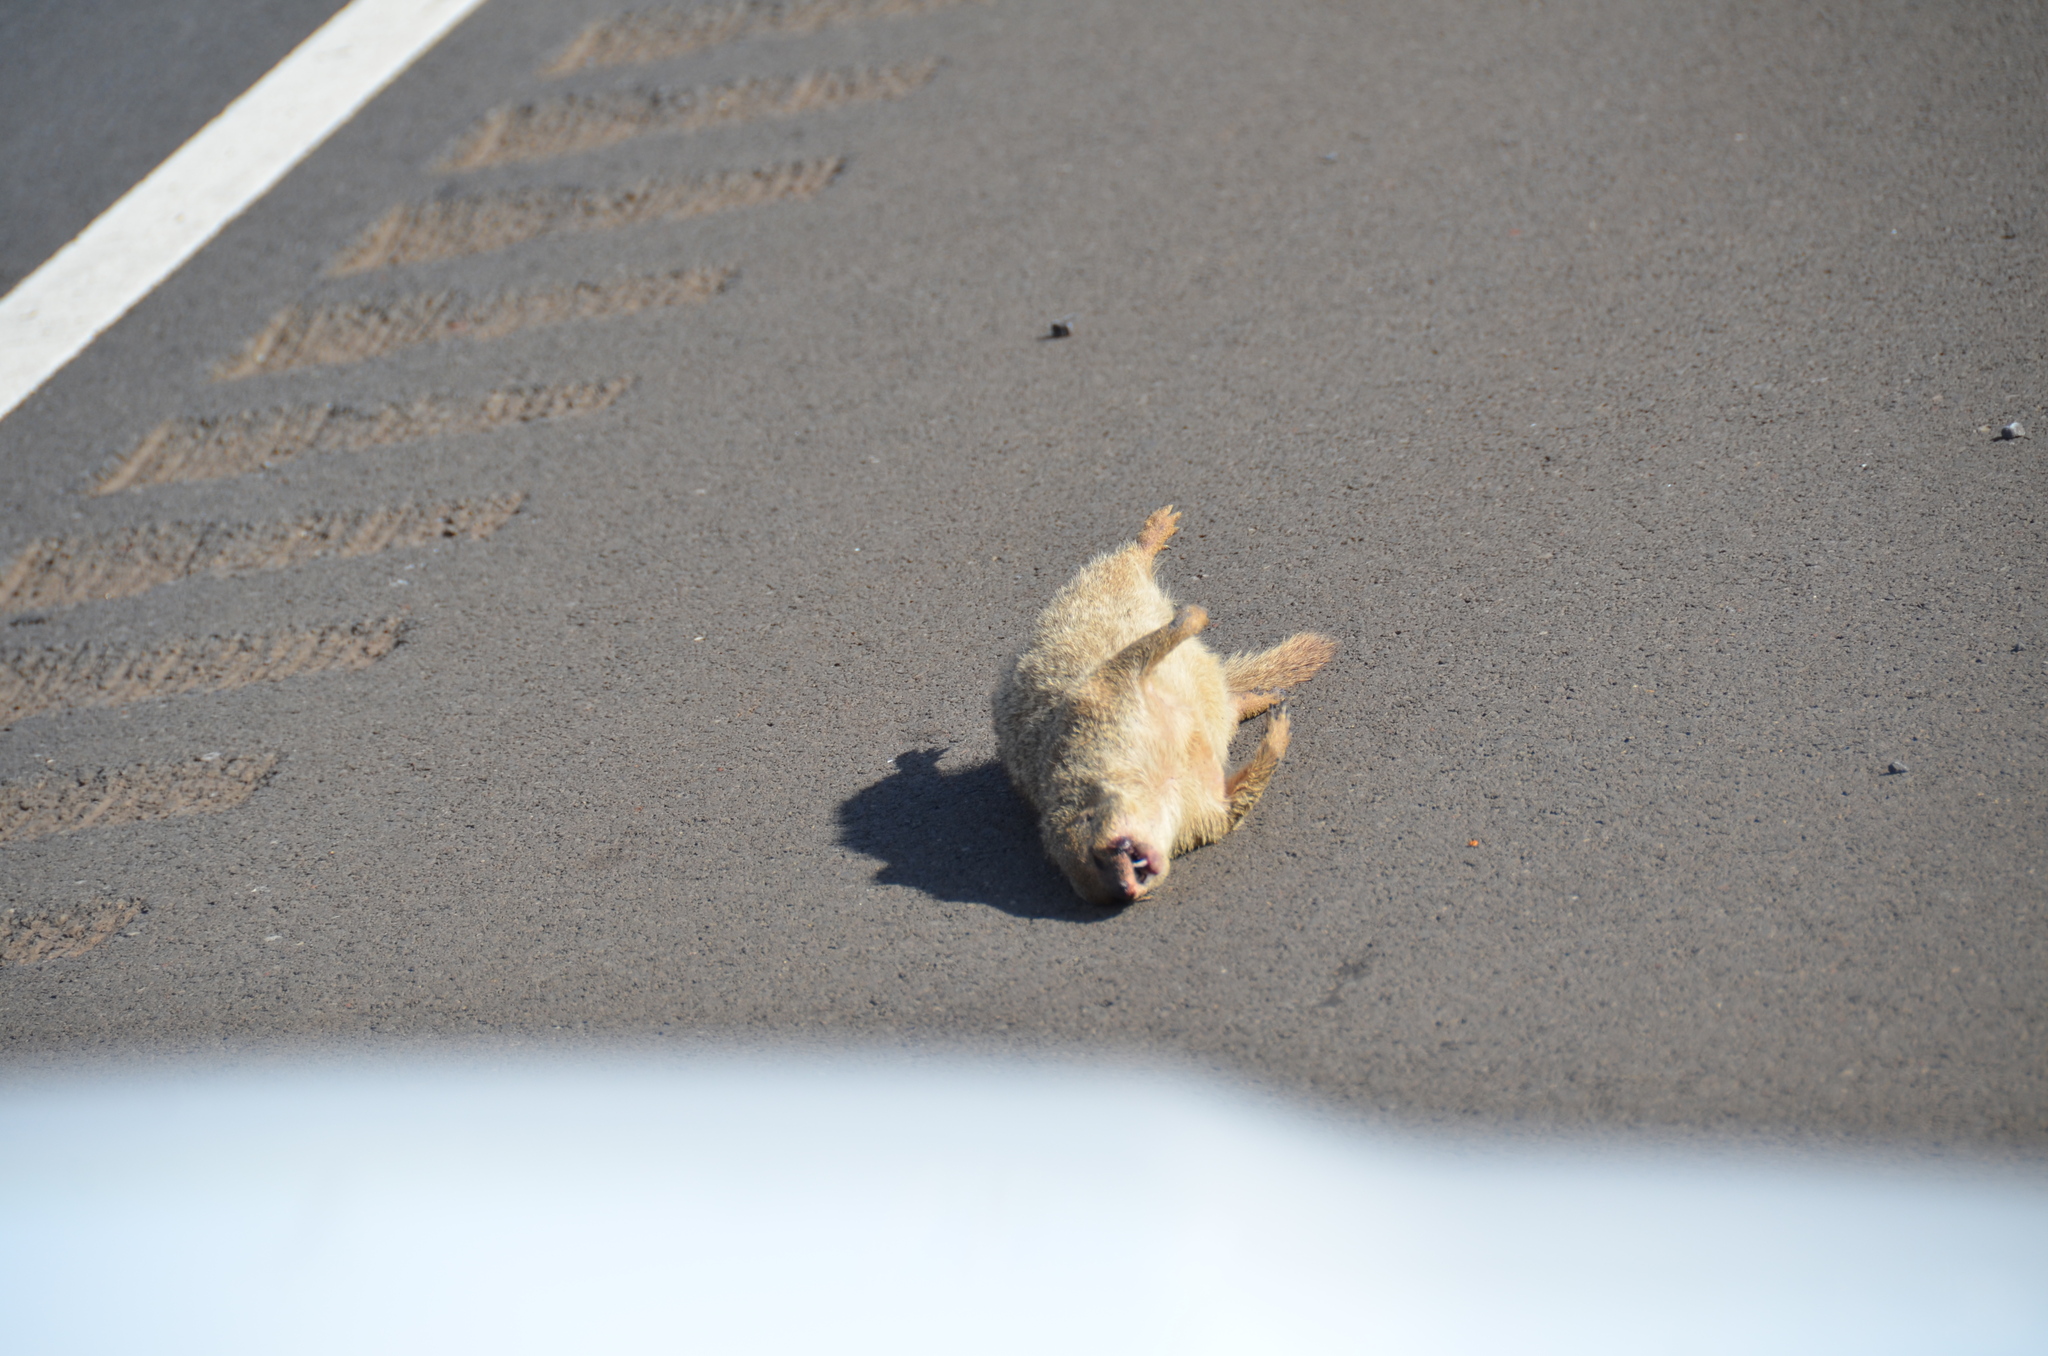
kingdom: Animalia
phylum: Chordata
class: Mammalia
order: Carnivora
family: Herpestidae
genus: Herpestes
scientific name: Herpestes javanicus
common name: Small asian mongoose
